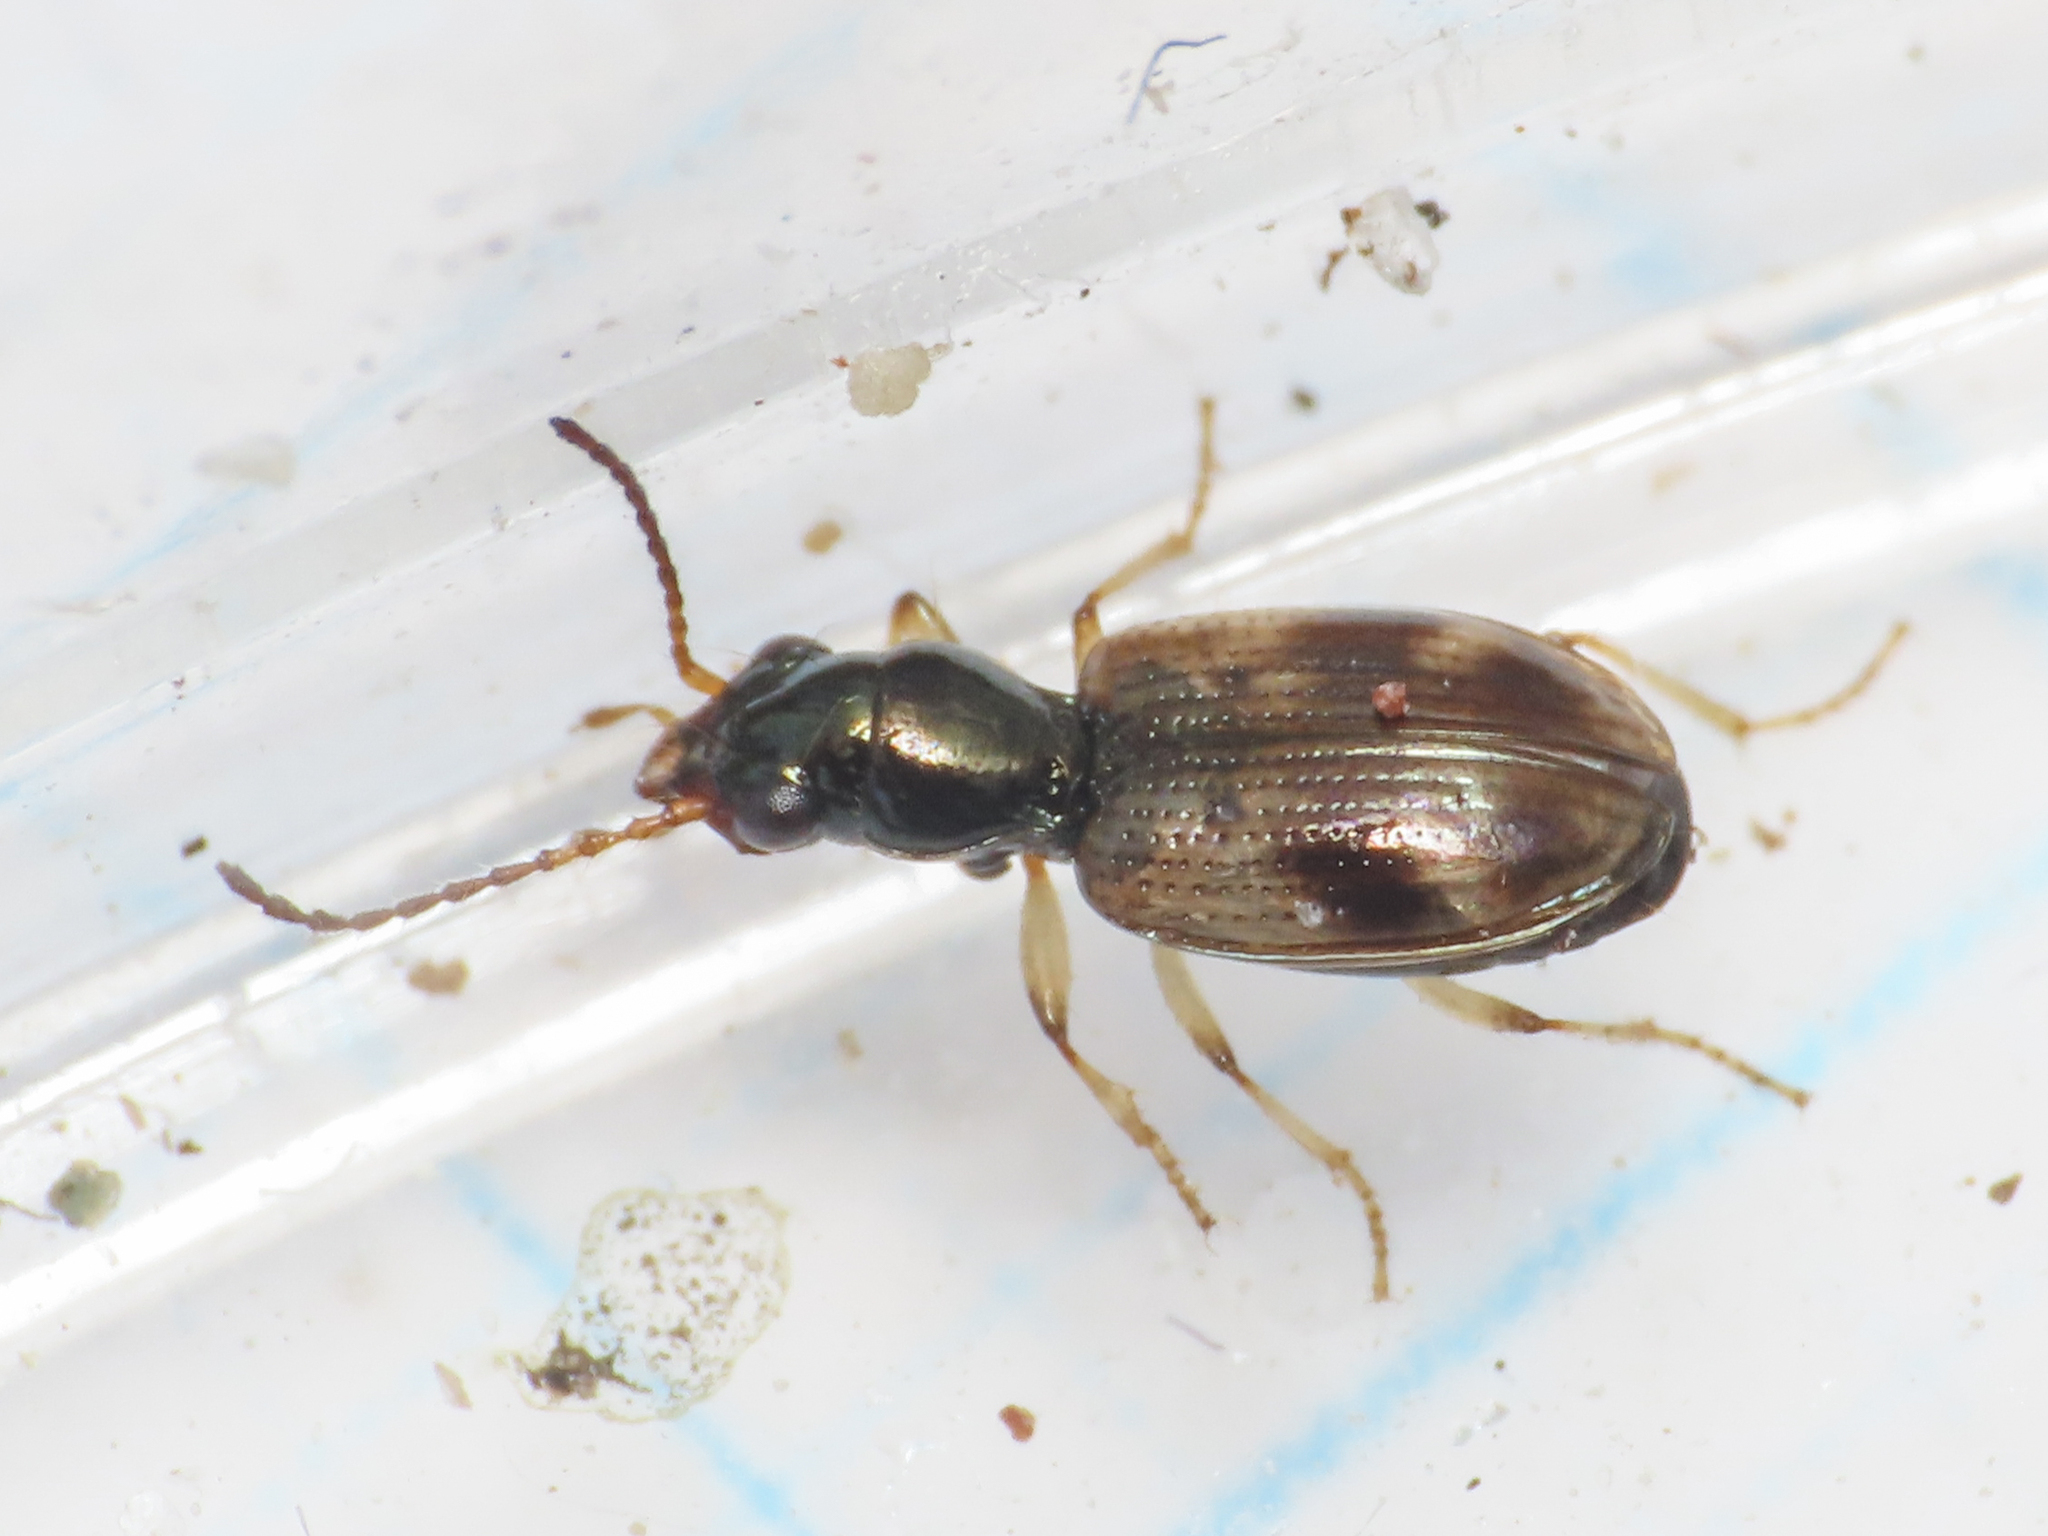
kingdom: Animalia
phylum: Arthropoda
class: Insecta
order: Coleoptera
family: Carabidae
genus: Bembidion
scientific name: Bembidion articulatum
